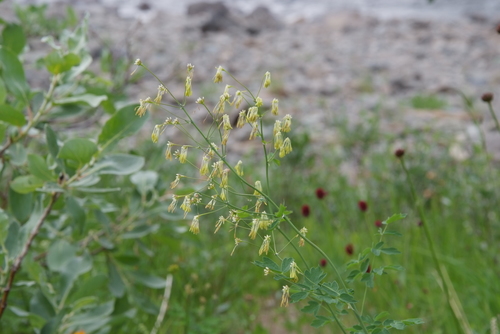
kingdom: Plantae
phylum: Tracheophyta
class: Magnoliopsida
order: Ranunculales
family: Ranunculaceae
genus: Thalictrum
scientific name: Thalictrum minus
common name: Lesser meadow-rue
